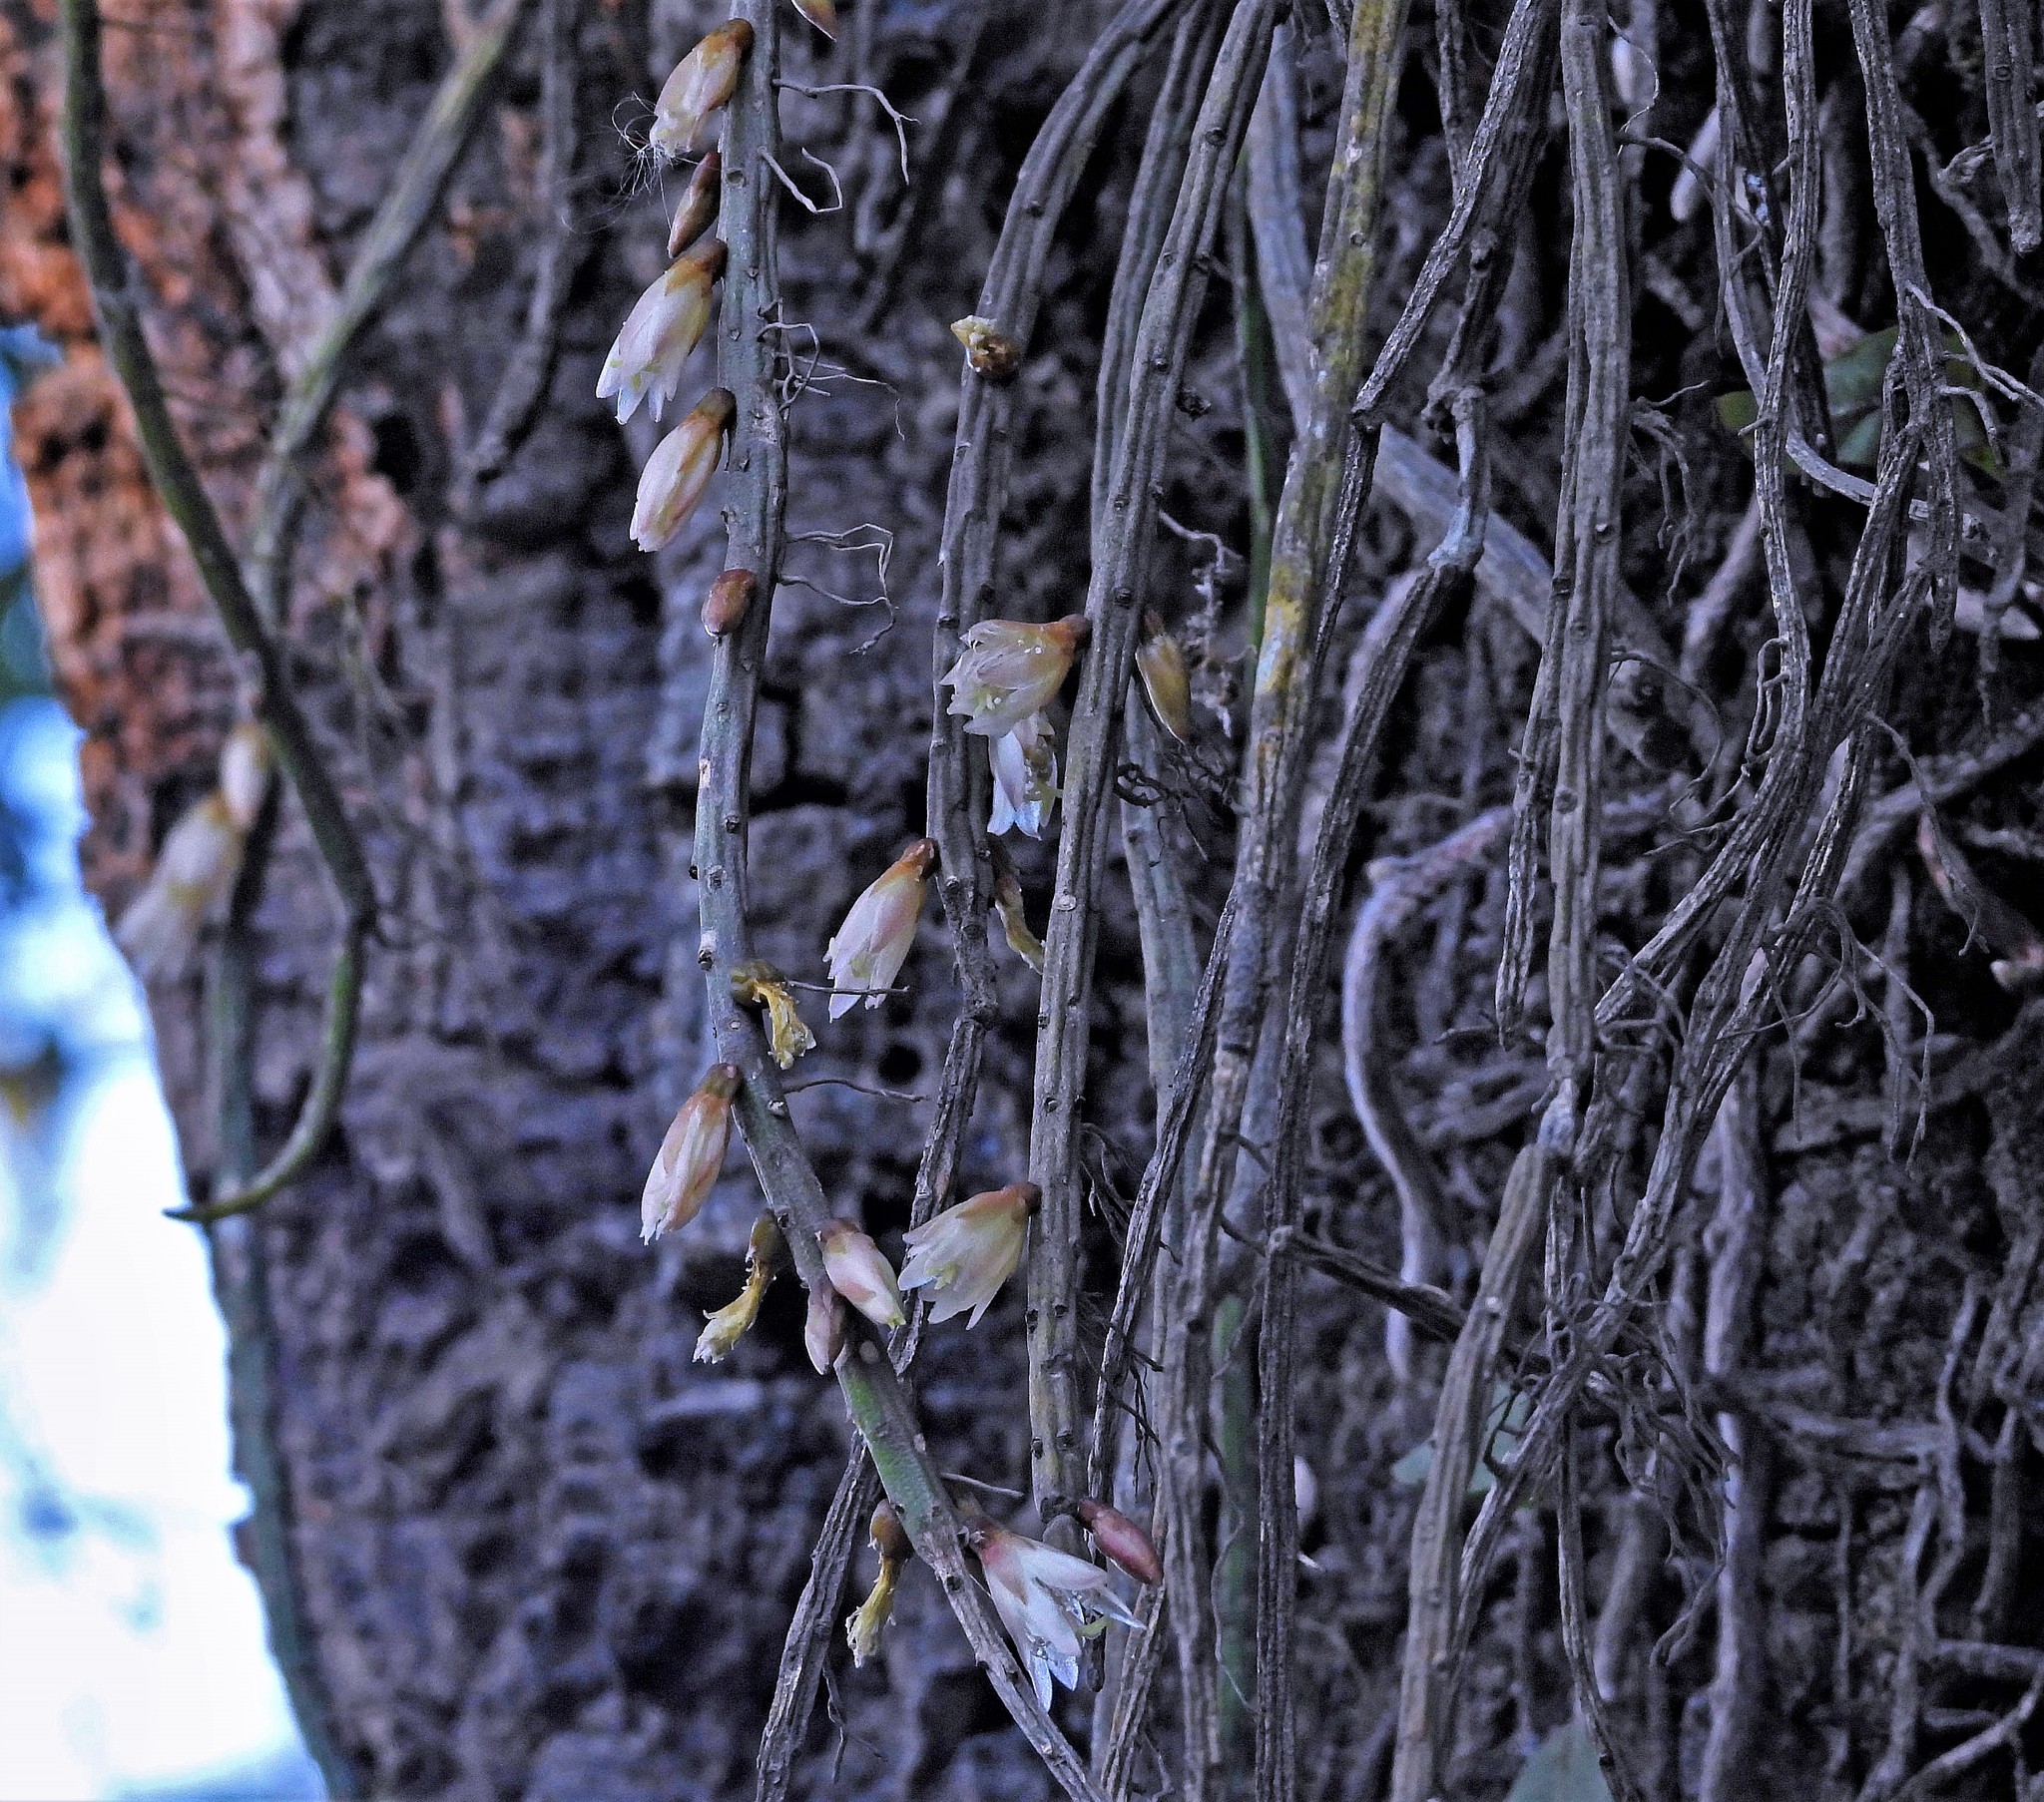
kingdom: Plantae
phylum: Tracheophyta
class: Magnoliopsida
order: Caryophyllales
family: Cactaceae
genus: Lepismium
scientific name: Lepismium lumbricoides
